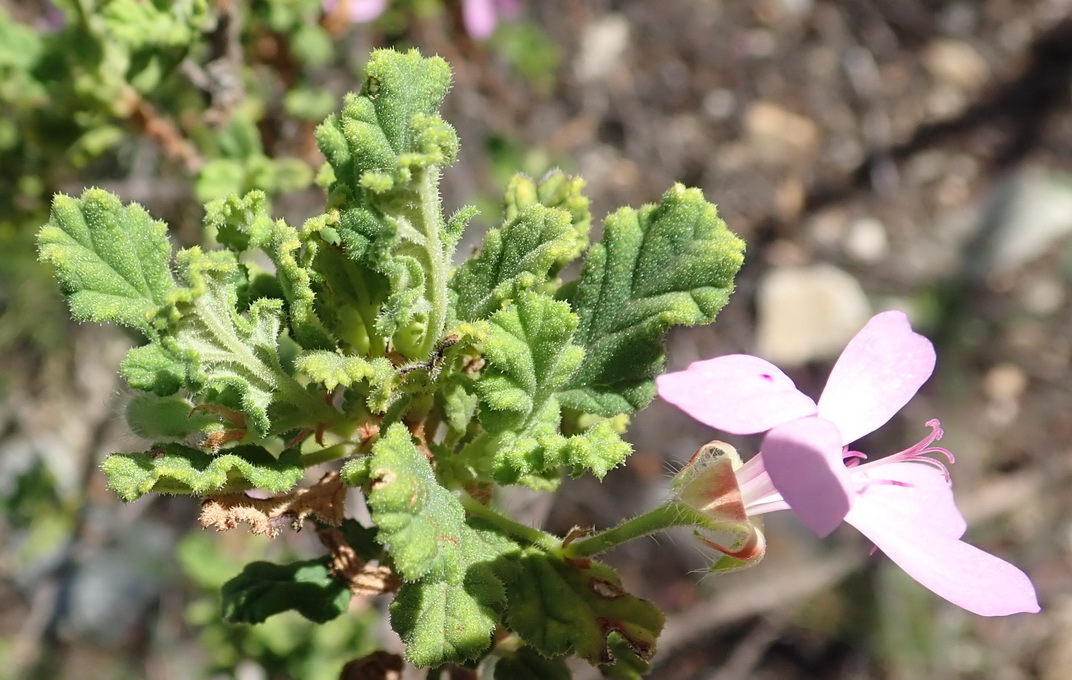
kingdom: Plantae
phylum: Tracheophyta
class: Magnoliopsida
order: Geraniales
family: Geraniaceae
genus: Pelargonium
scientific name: Pelargonium quercifolium
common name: Oakleaf geranium
